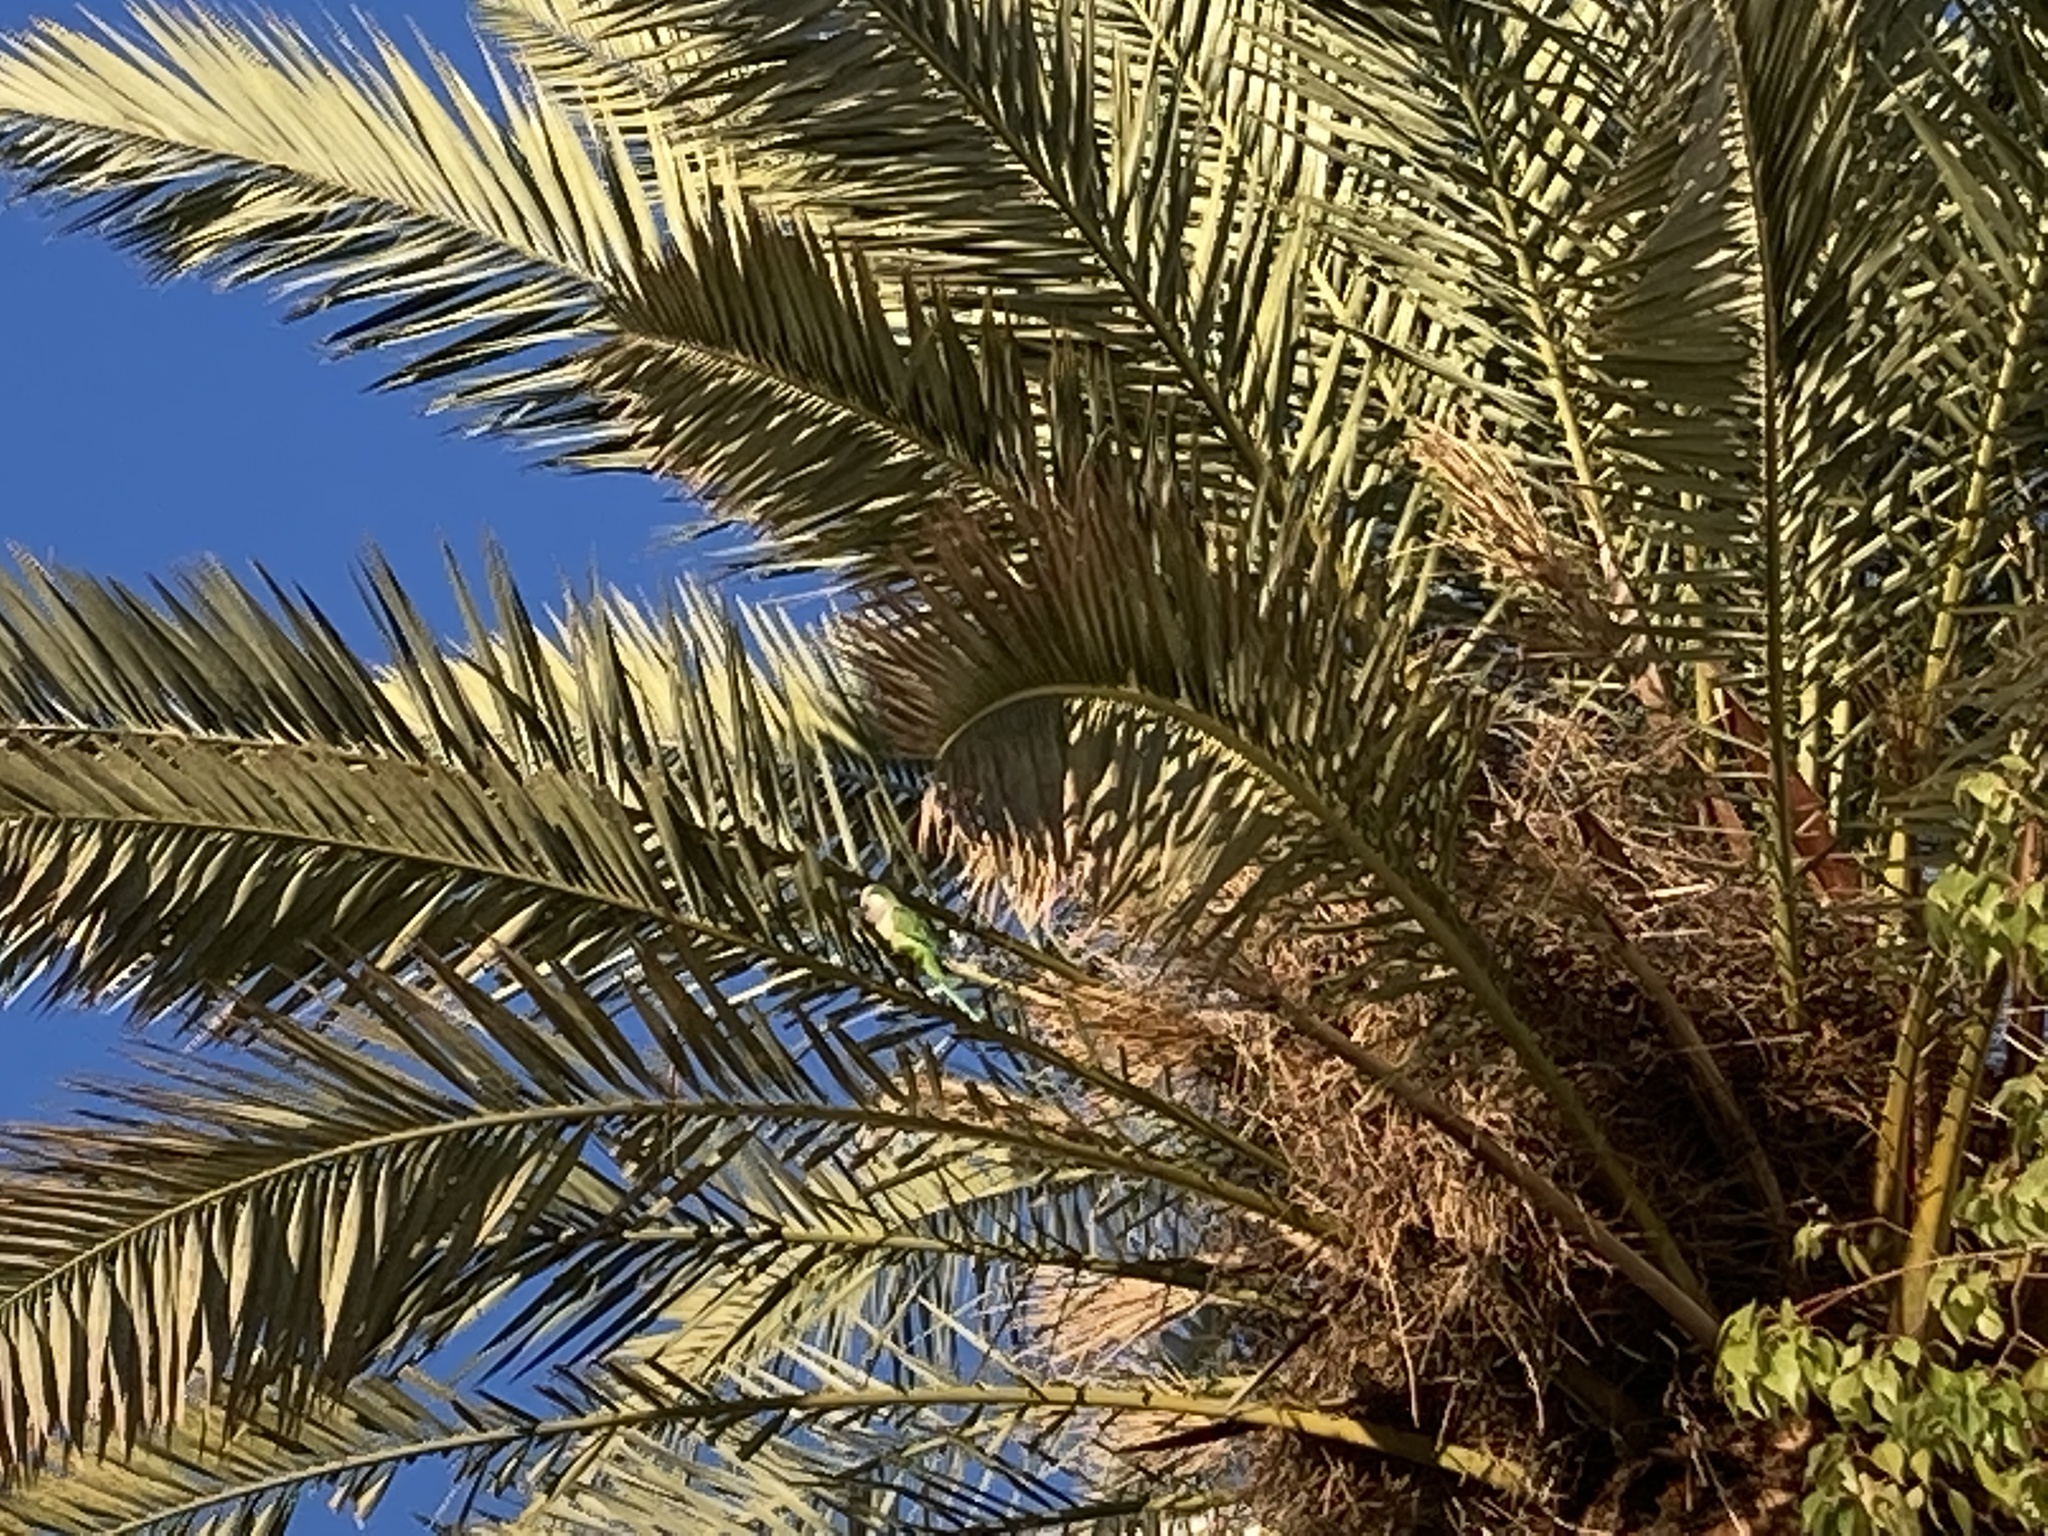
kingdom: Animalia
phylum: Chordata
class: Aves
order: Psittaciformes
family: Psittacidae
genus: Myiopsitta
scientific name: Myiopsitta monachus
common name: Monk parakeet
